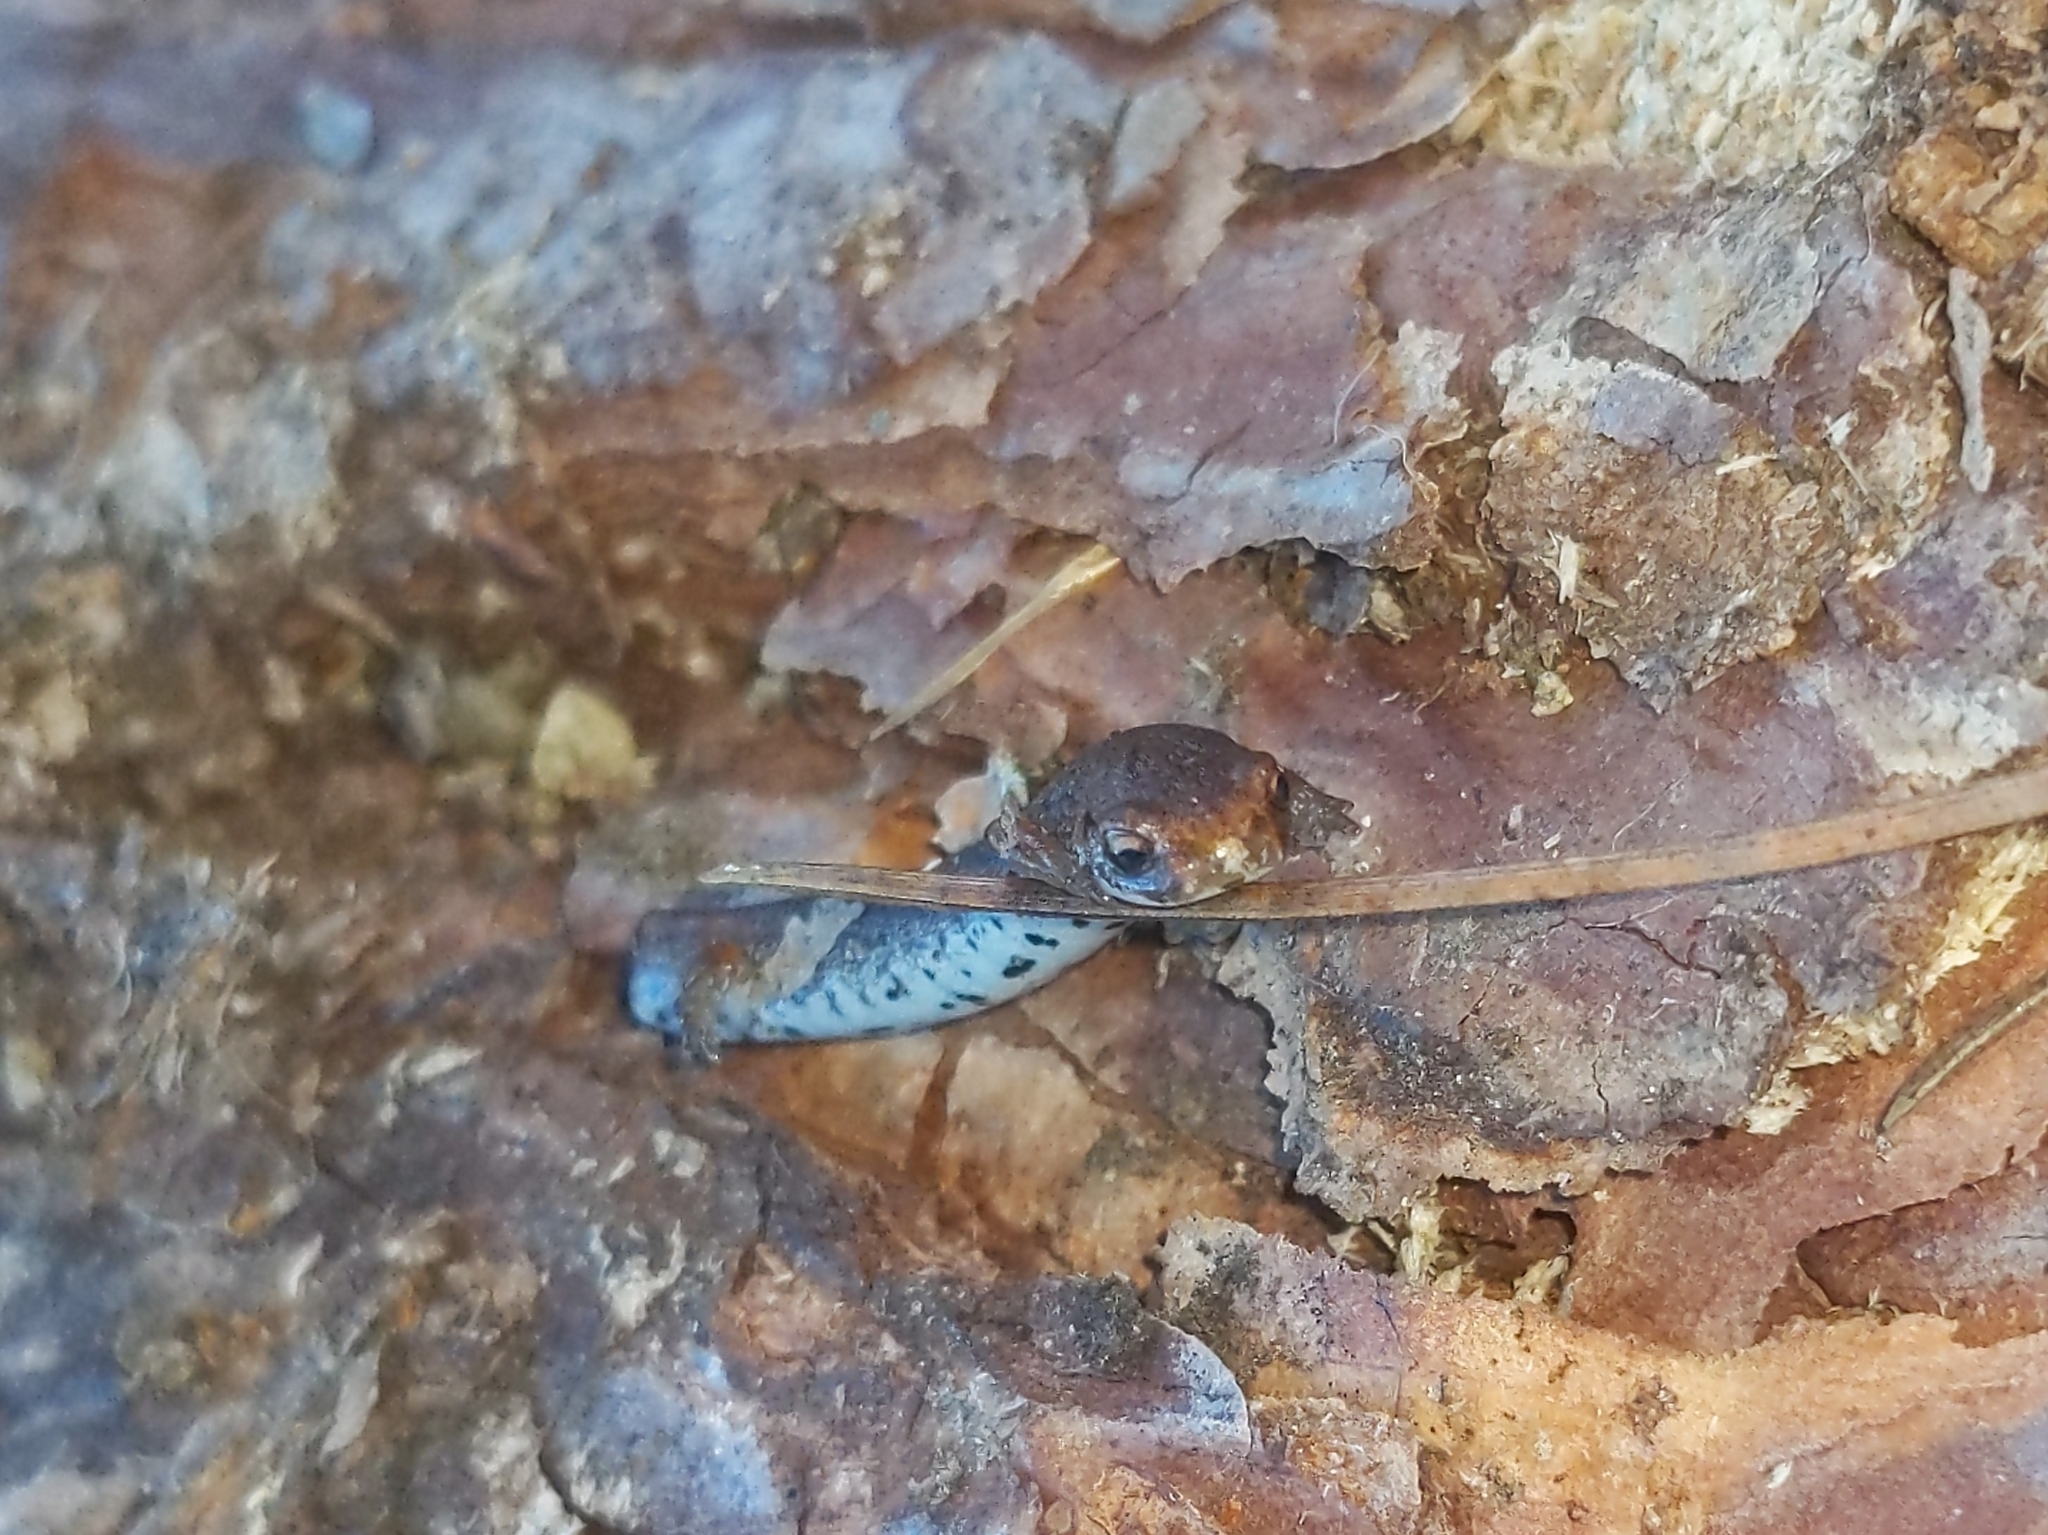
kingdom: Animalia
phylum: Chordata
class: Amphibia
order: Caudata
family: Plethodontidae
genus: Hemidactylium
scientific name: Hemidactylium scutatum
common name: Four-toed salamander
